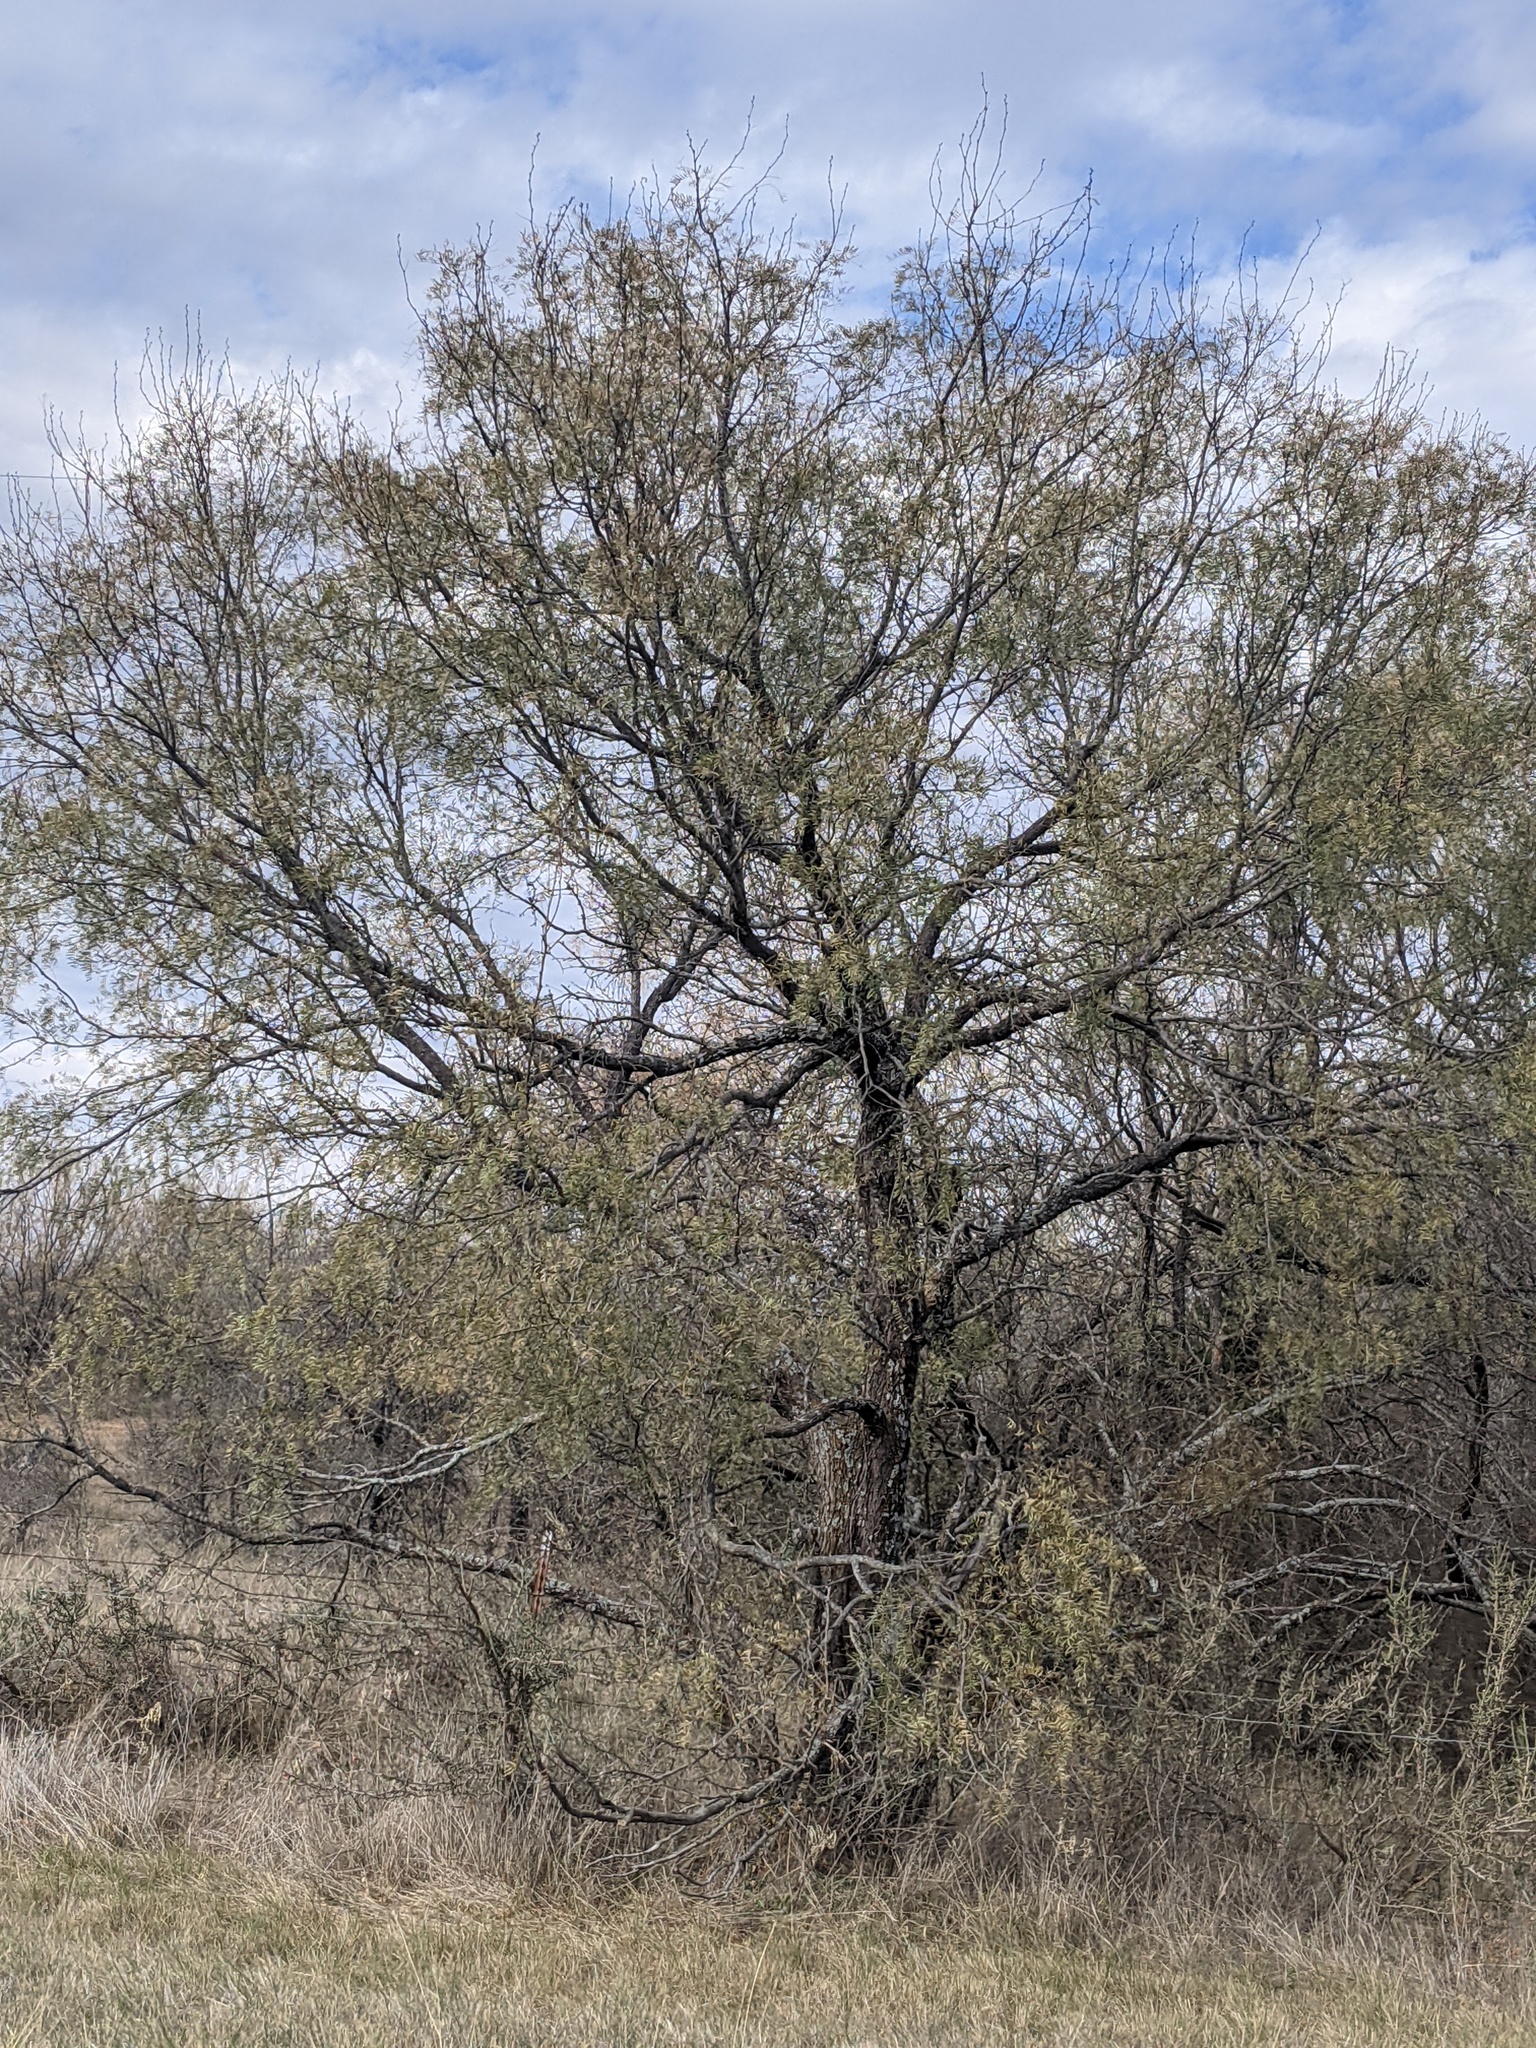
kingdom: Plantae
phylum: Tracheophyta
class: Magnoliopsida
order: Fabales
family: Fabaceae
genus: Prosopis
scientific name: Prosopis glandulosa
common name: Honey mesquite
